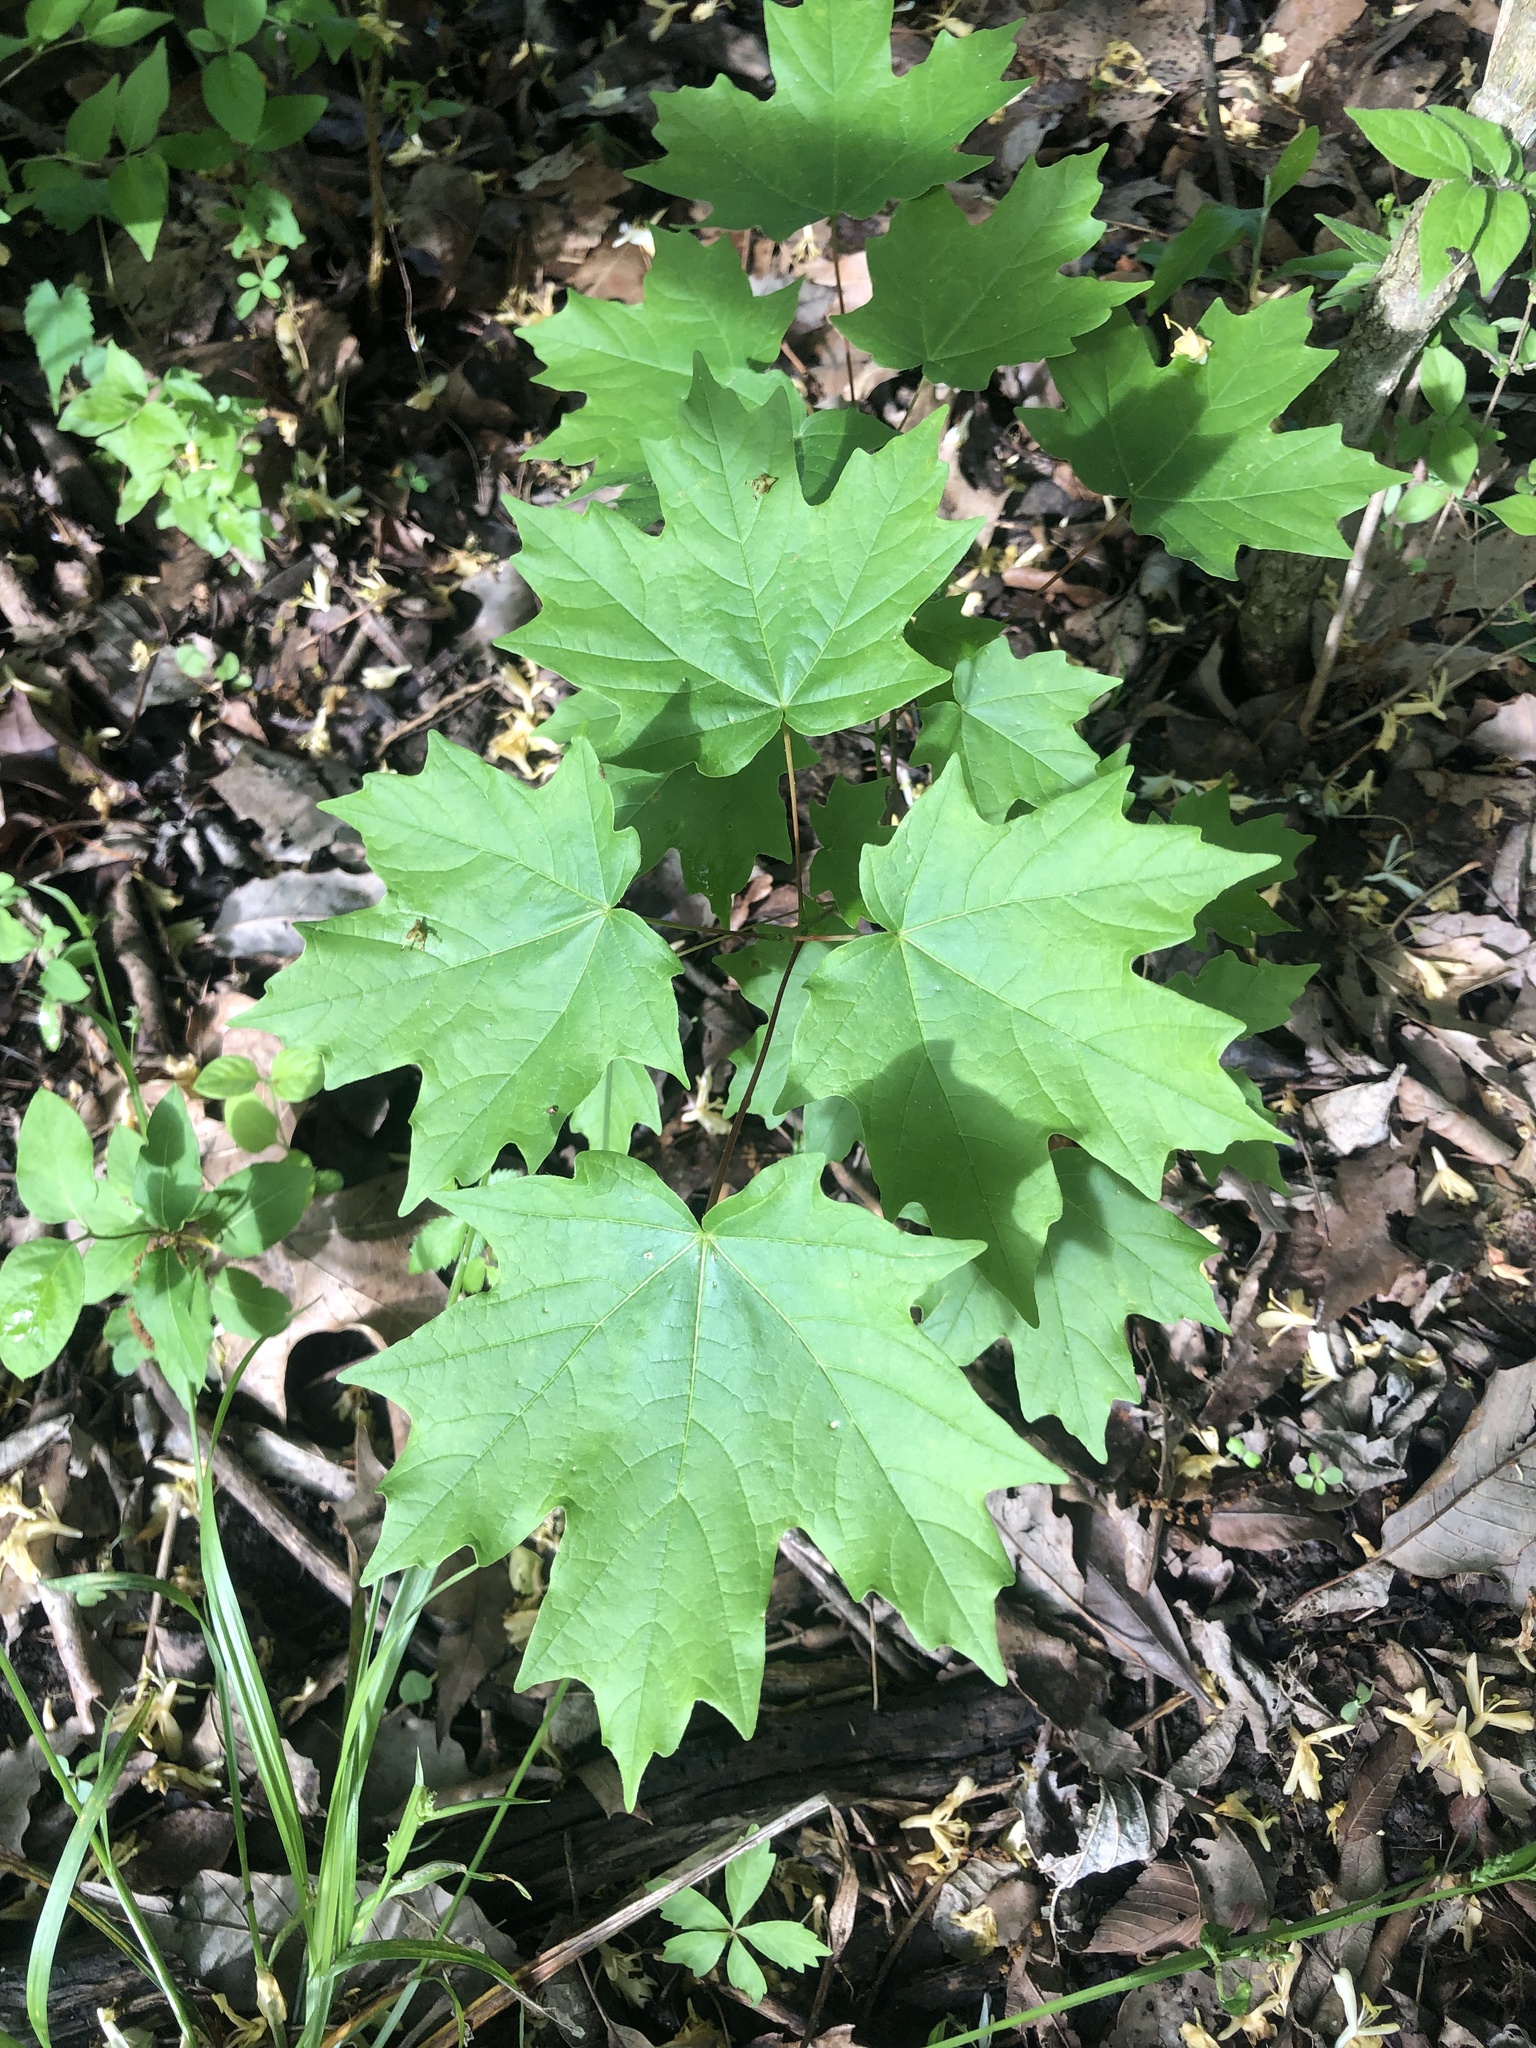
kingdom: Plantae
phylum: Tracheophyta
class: Magnoliopsida
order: Sapindales
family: Sapindaceae
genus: Acer
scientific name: Acer saccharum
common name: Sugar maple
